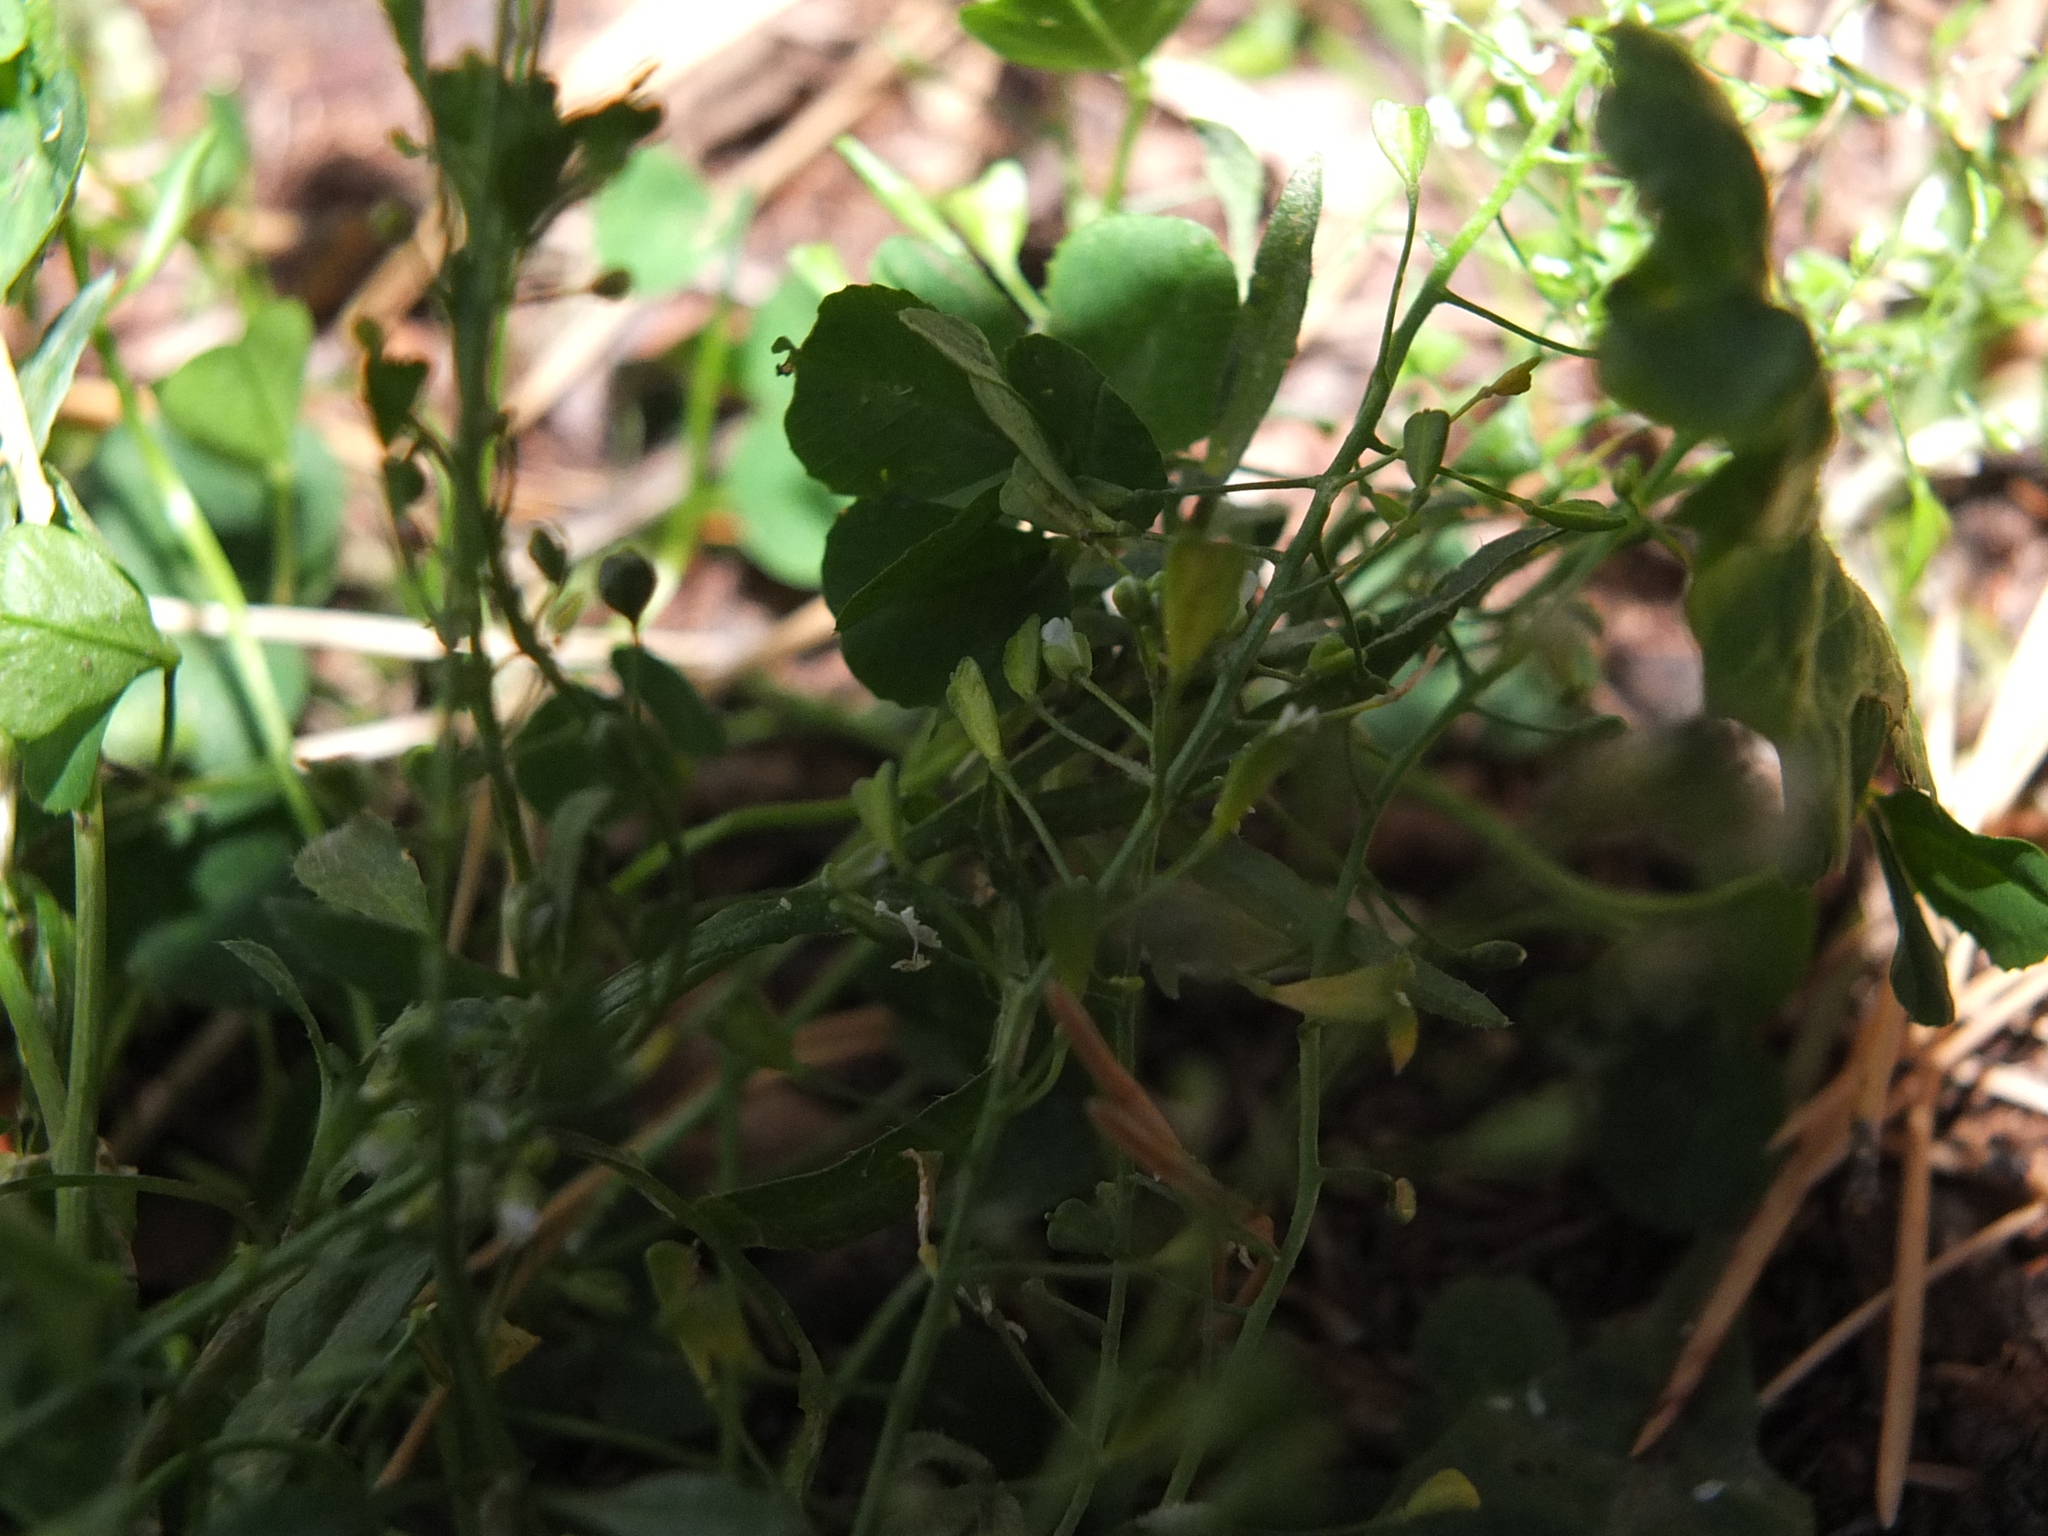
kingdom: Plantae
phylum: Tracheophyta
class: Magnoliopsida
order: Brassicales
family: Brassicaceae
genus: Capsella
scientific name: Capsella bursa-pastoris
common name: Shepherd's purse
